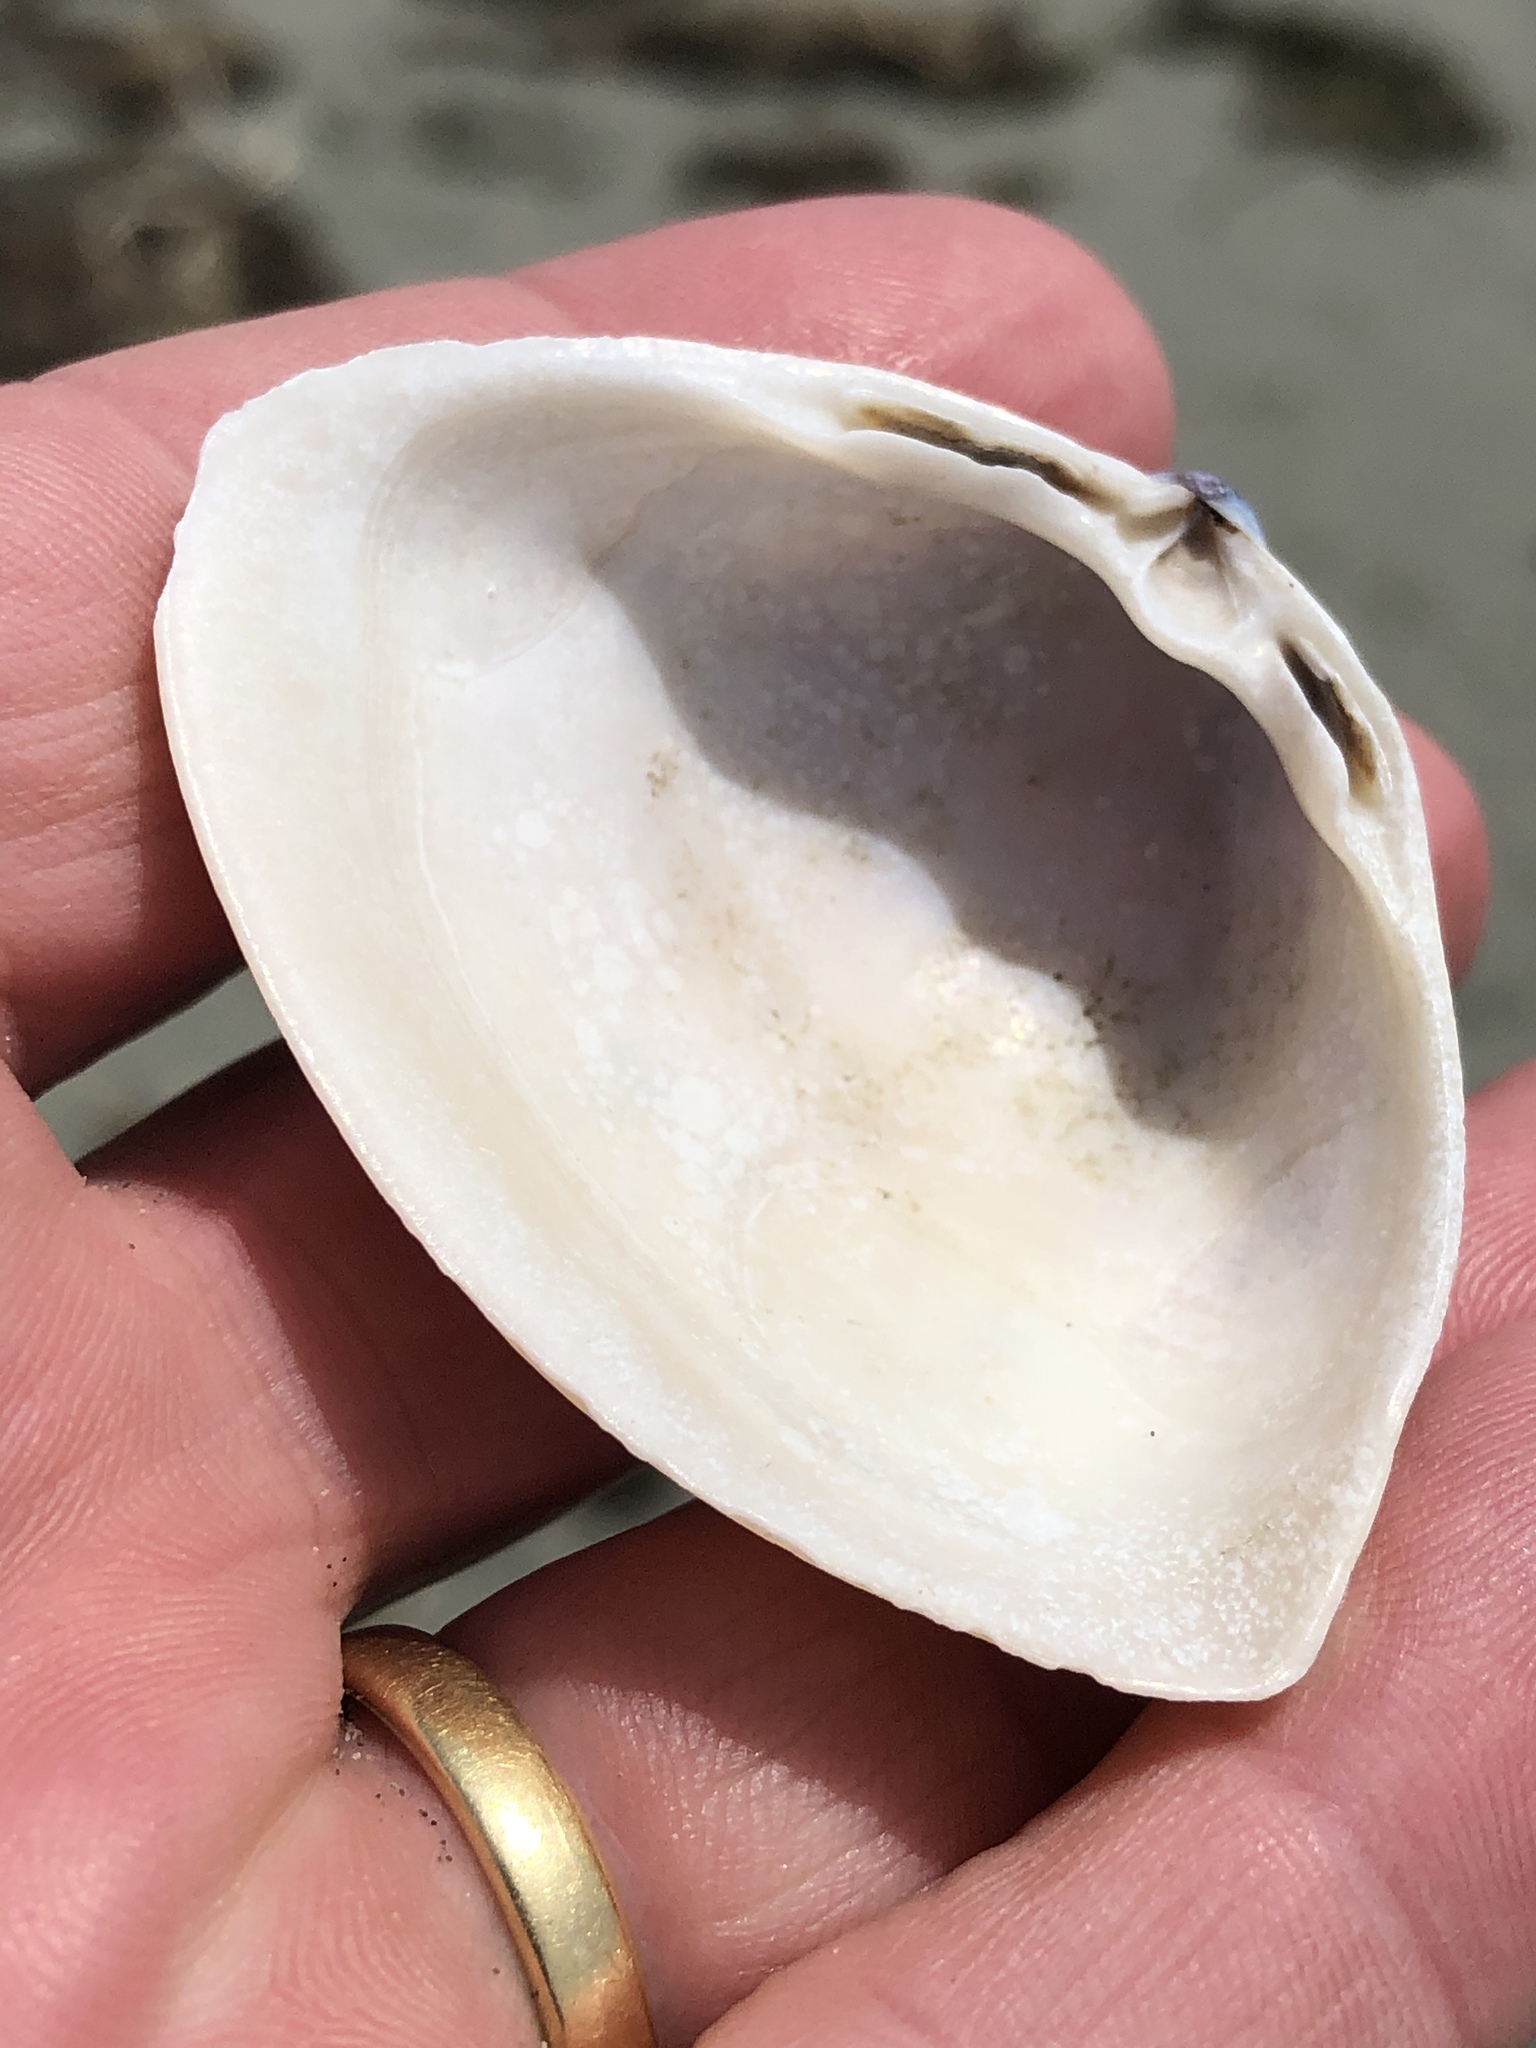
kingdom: Animalia
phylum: Mollusca
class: Bivalvia
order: Venerida
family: Mactridae
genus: Crassula
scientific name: Crassula aequilatera
